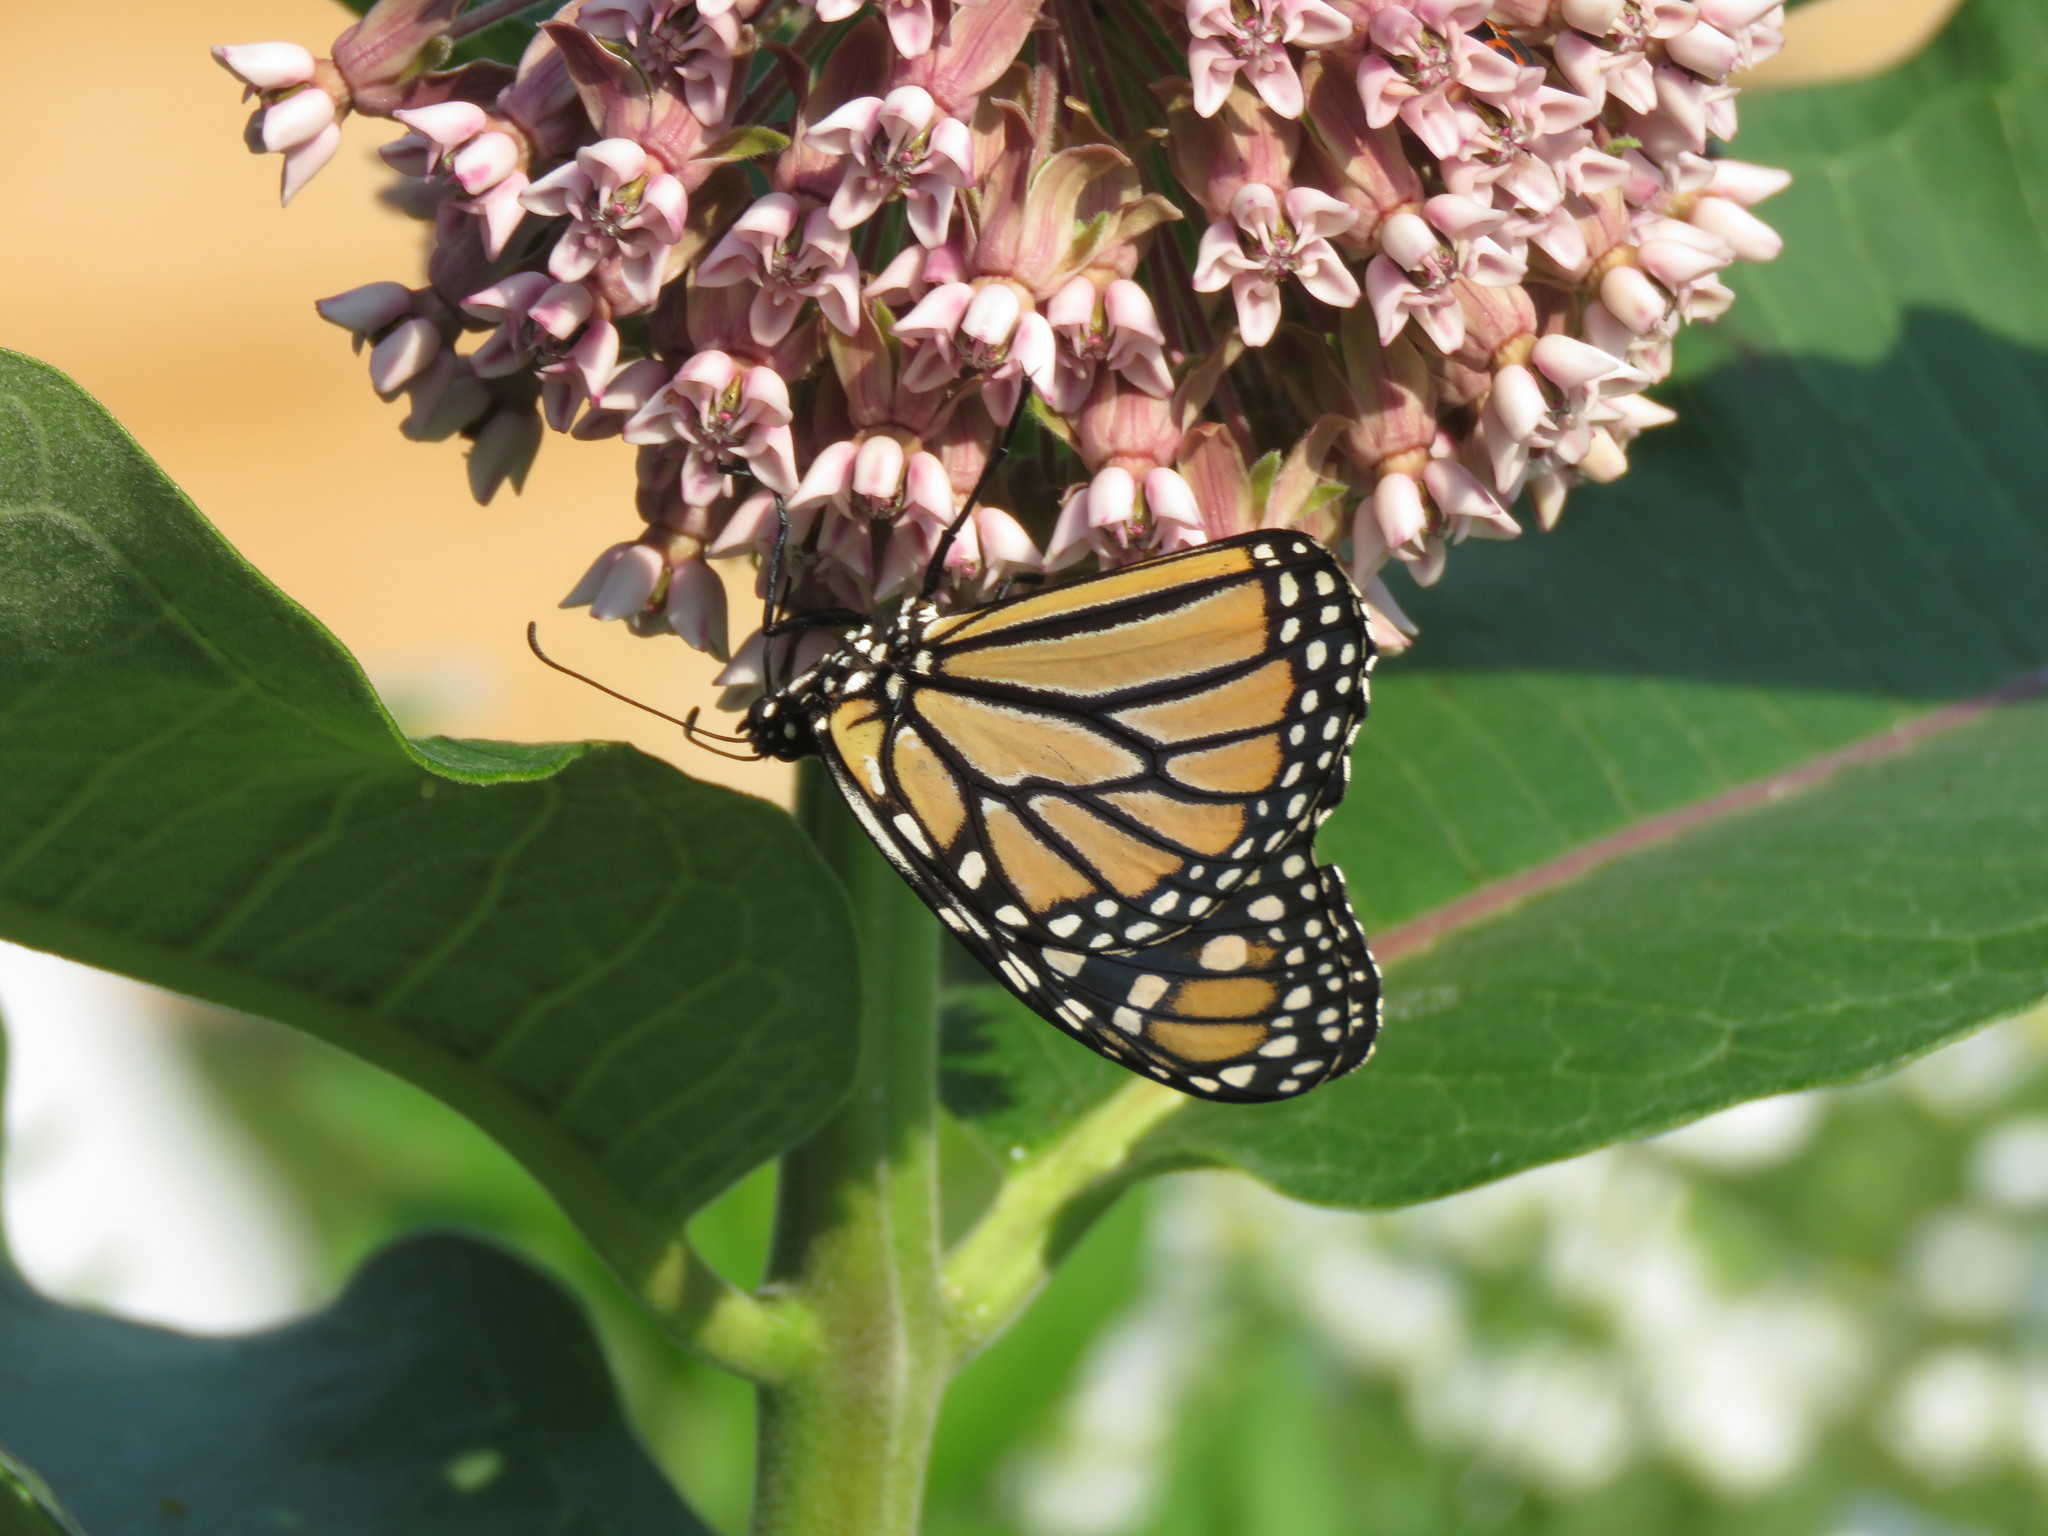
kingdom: Animalia
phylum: Arthropoda
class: Insecta
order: Lepidoptera
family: Nymphalidae
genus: Danaus
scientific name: Danaus plexippus
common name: Monarch
